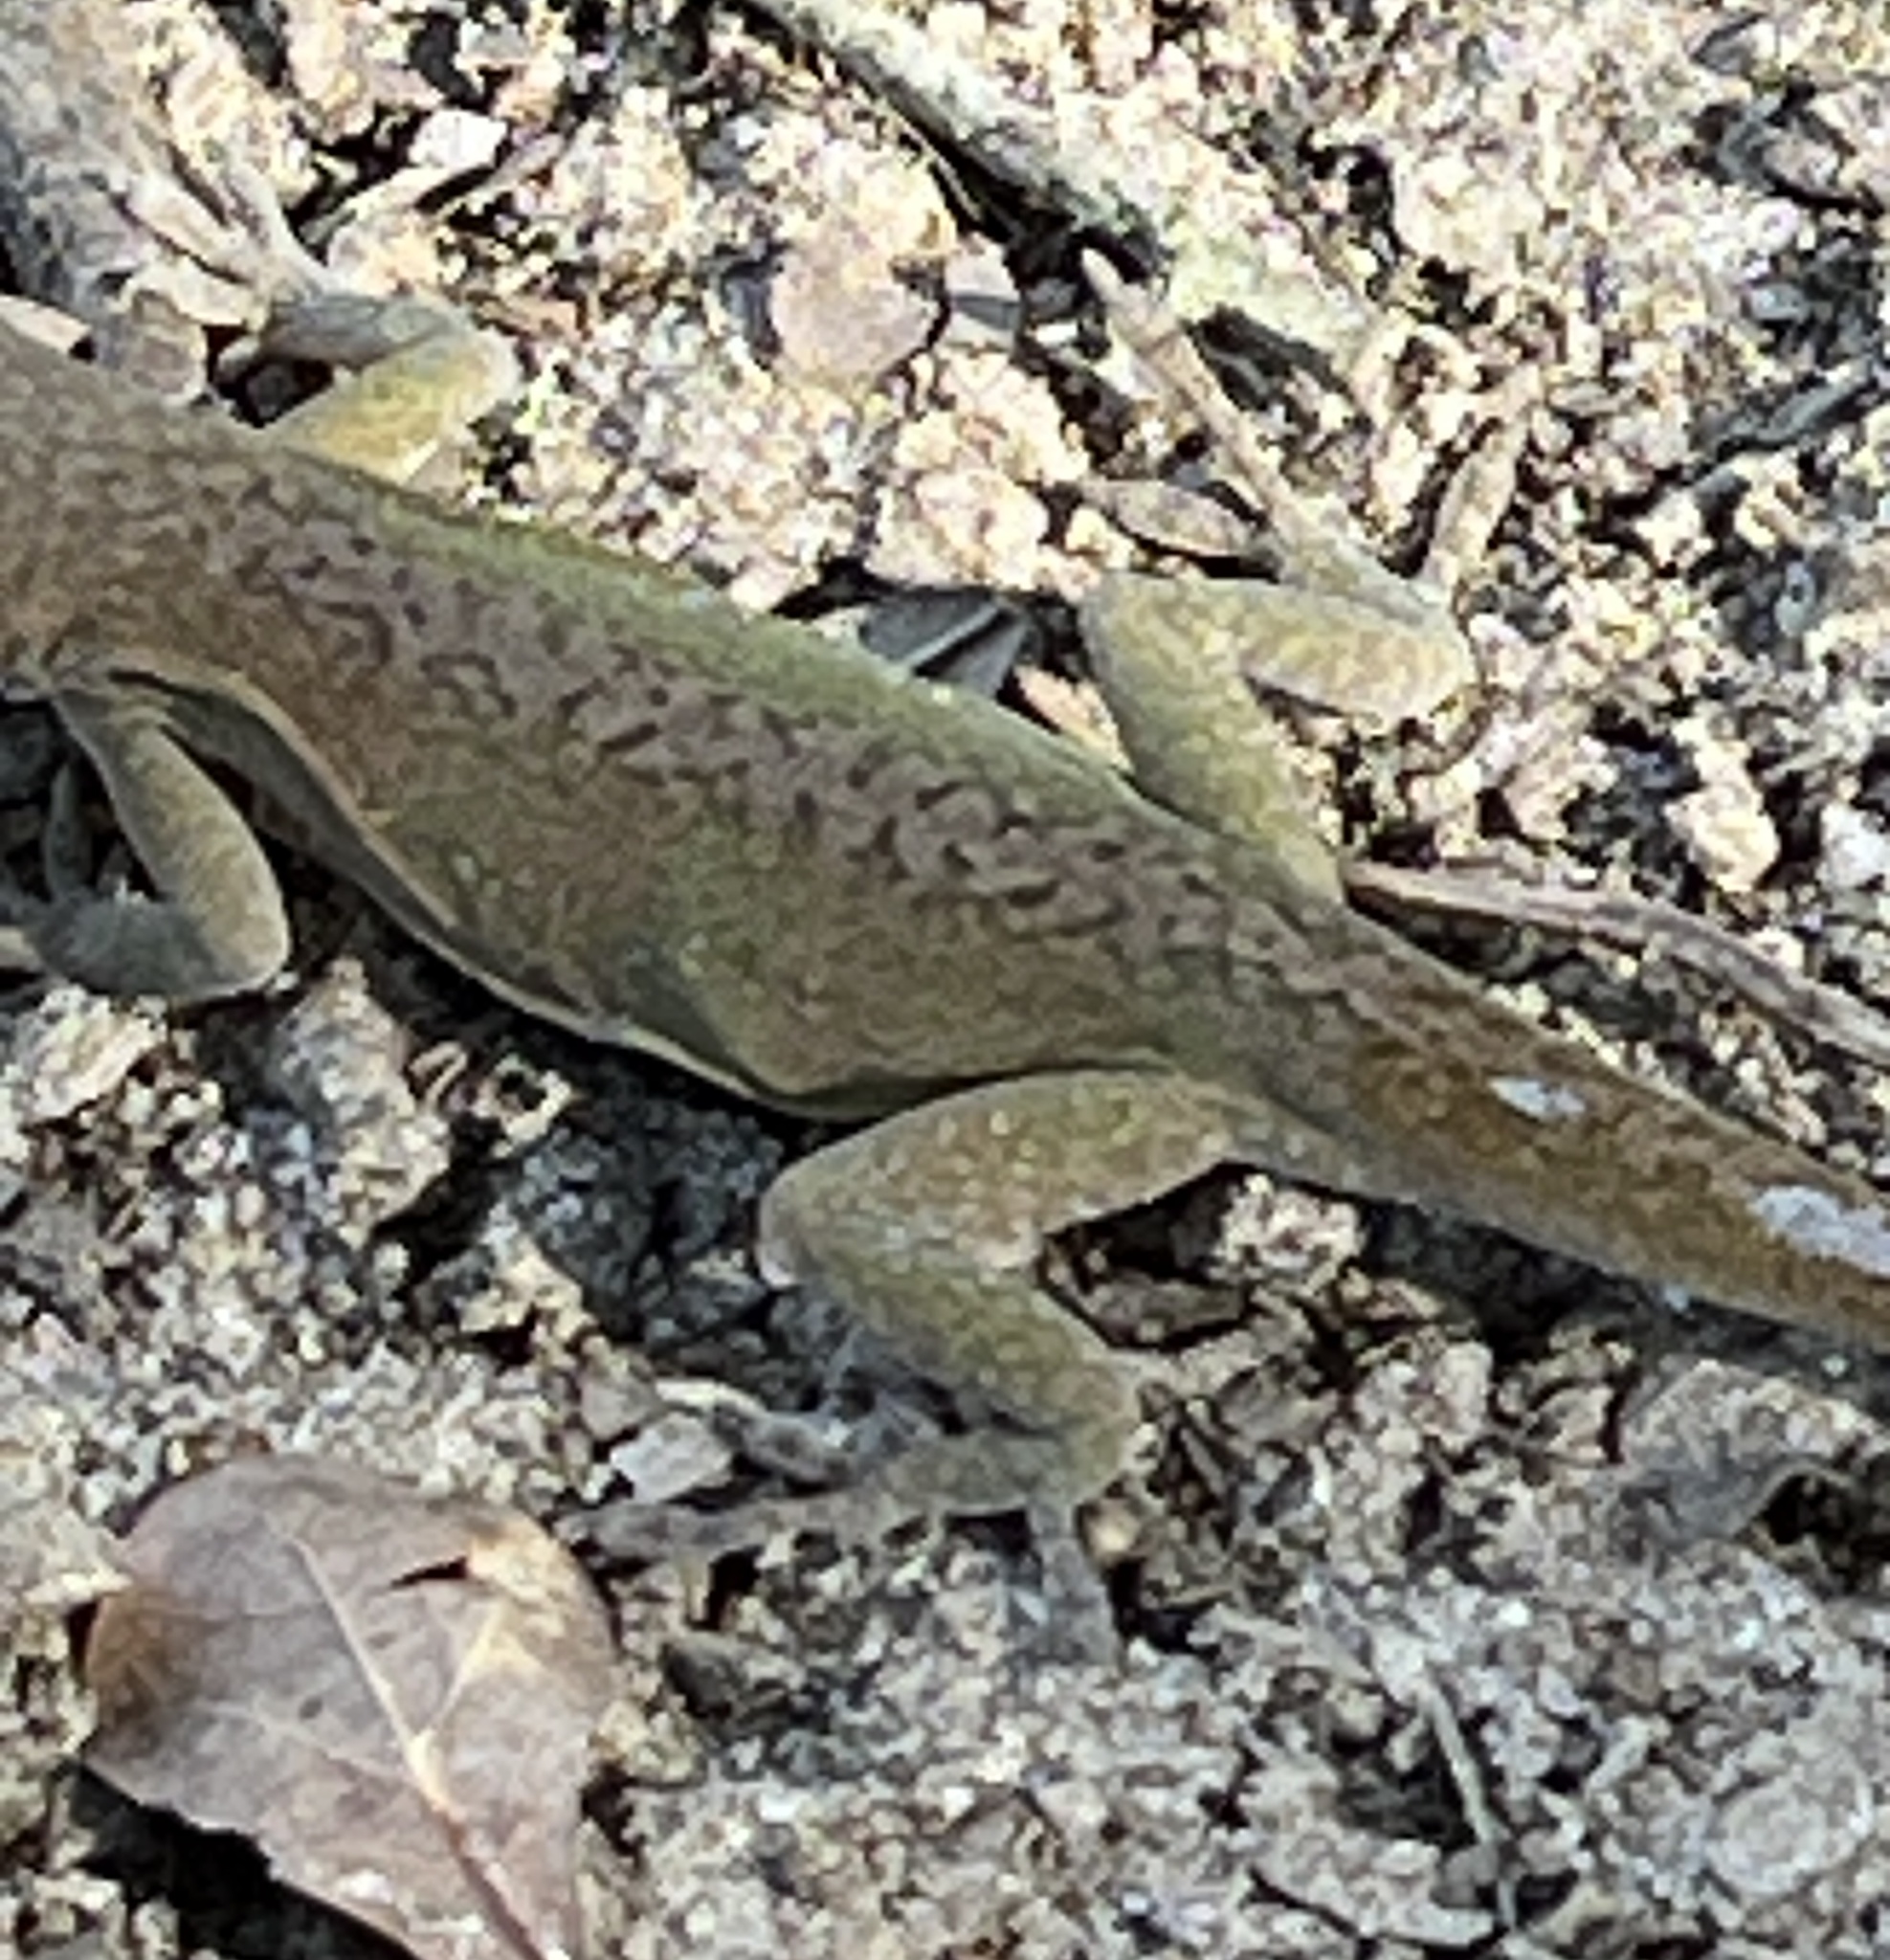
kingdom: Animalia
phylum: Chordata
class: Squamata
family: Dactyloidae
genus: Anolis
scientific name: Anolis carolinensis
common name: Green anole
